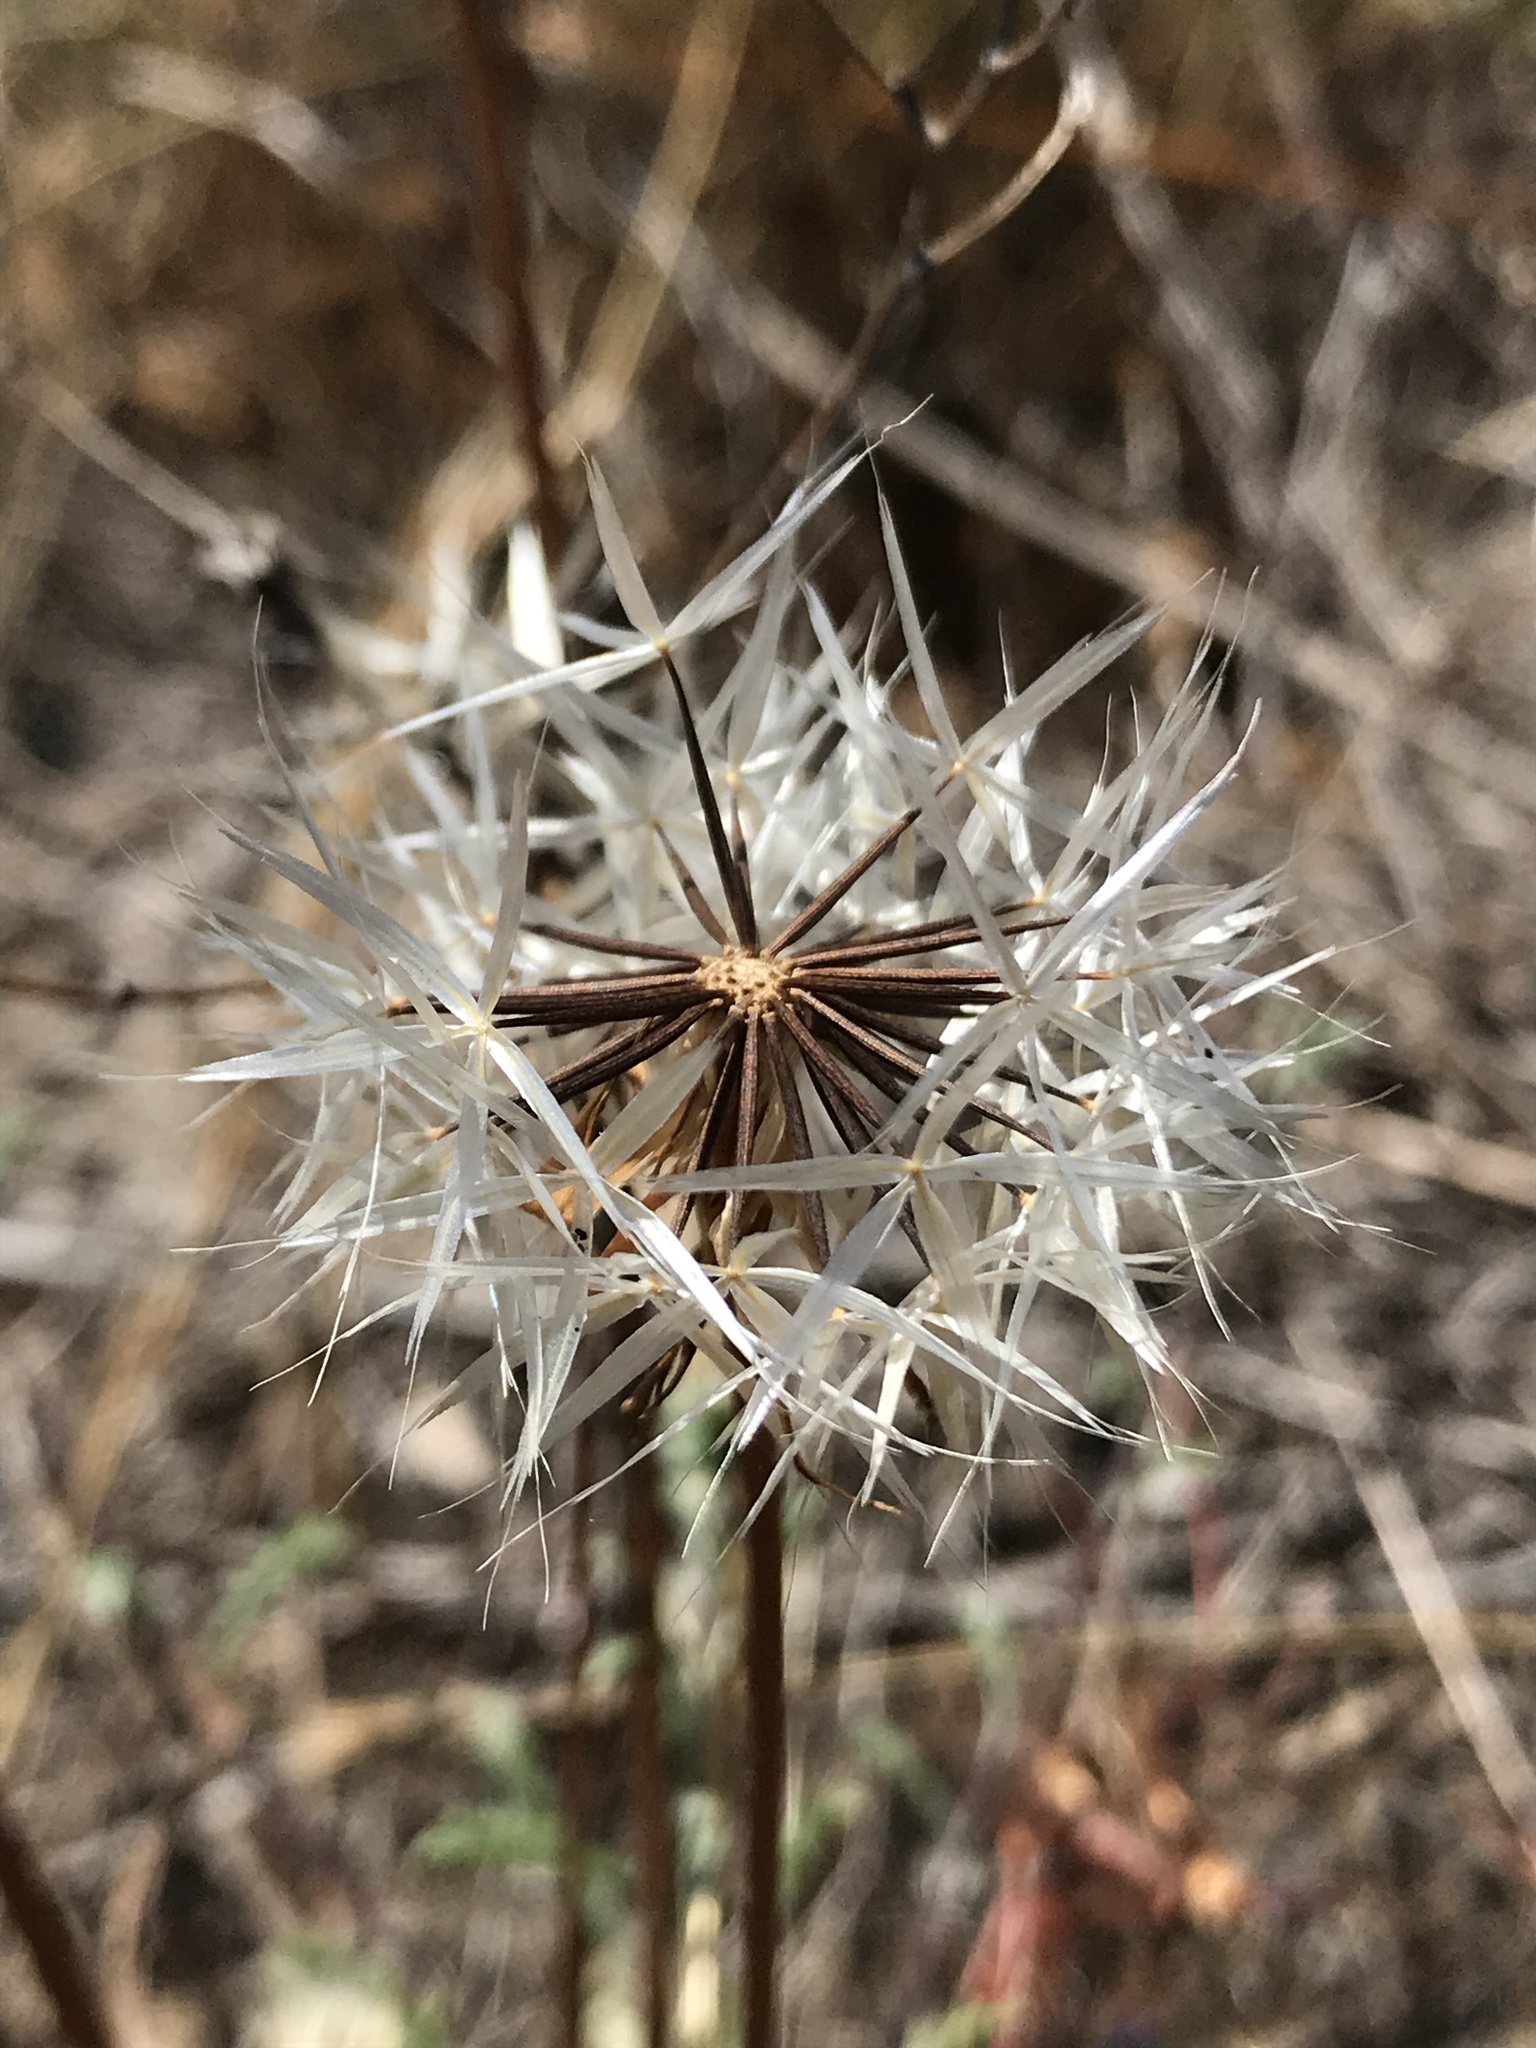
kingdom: Plantae
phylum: Tracheophyta
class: Magnoliopsida
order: Asterales
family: Asteraceae
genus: Microseris
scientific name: Microseris lindleyi
